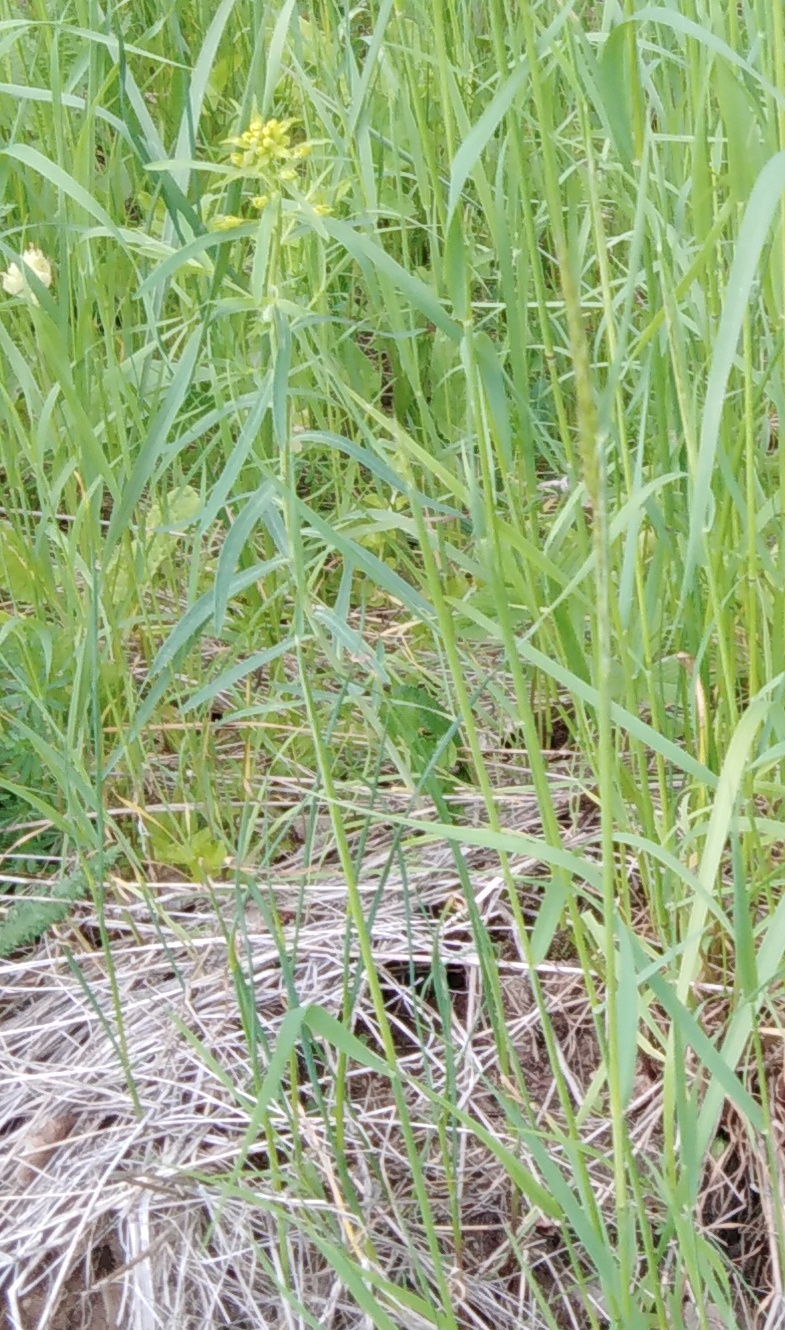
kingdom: Plantae
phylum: Tracheophyta
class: Magnoliopsida
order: Malpighiales
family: Euphorbiaceae
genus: Euphorbia
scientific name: Euphorbia virgata
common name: Leafy spurge
